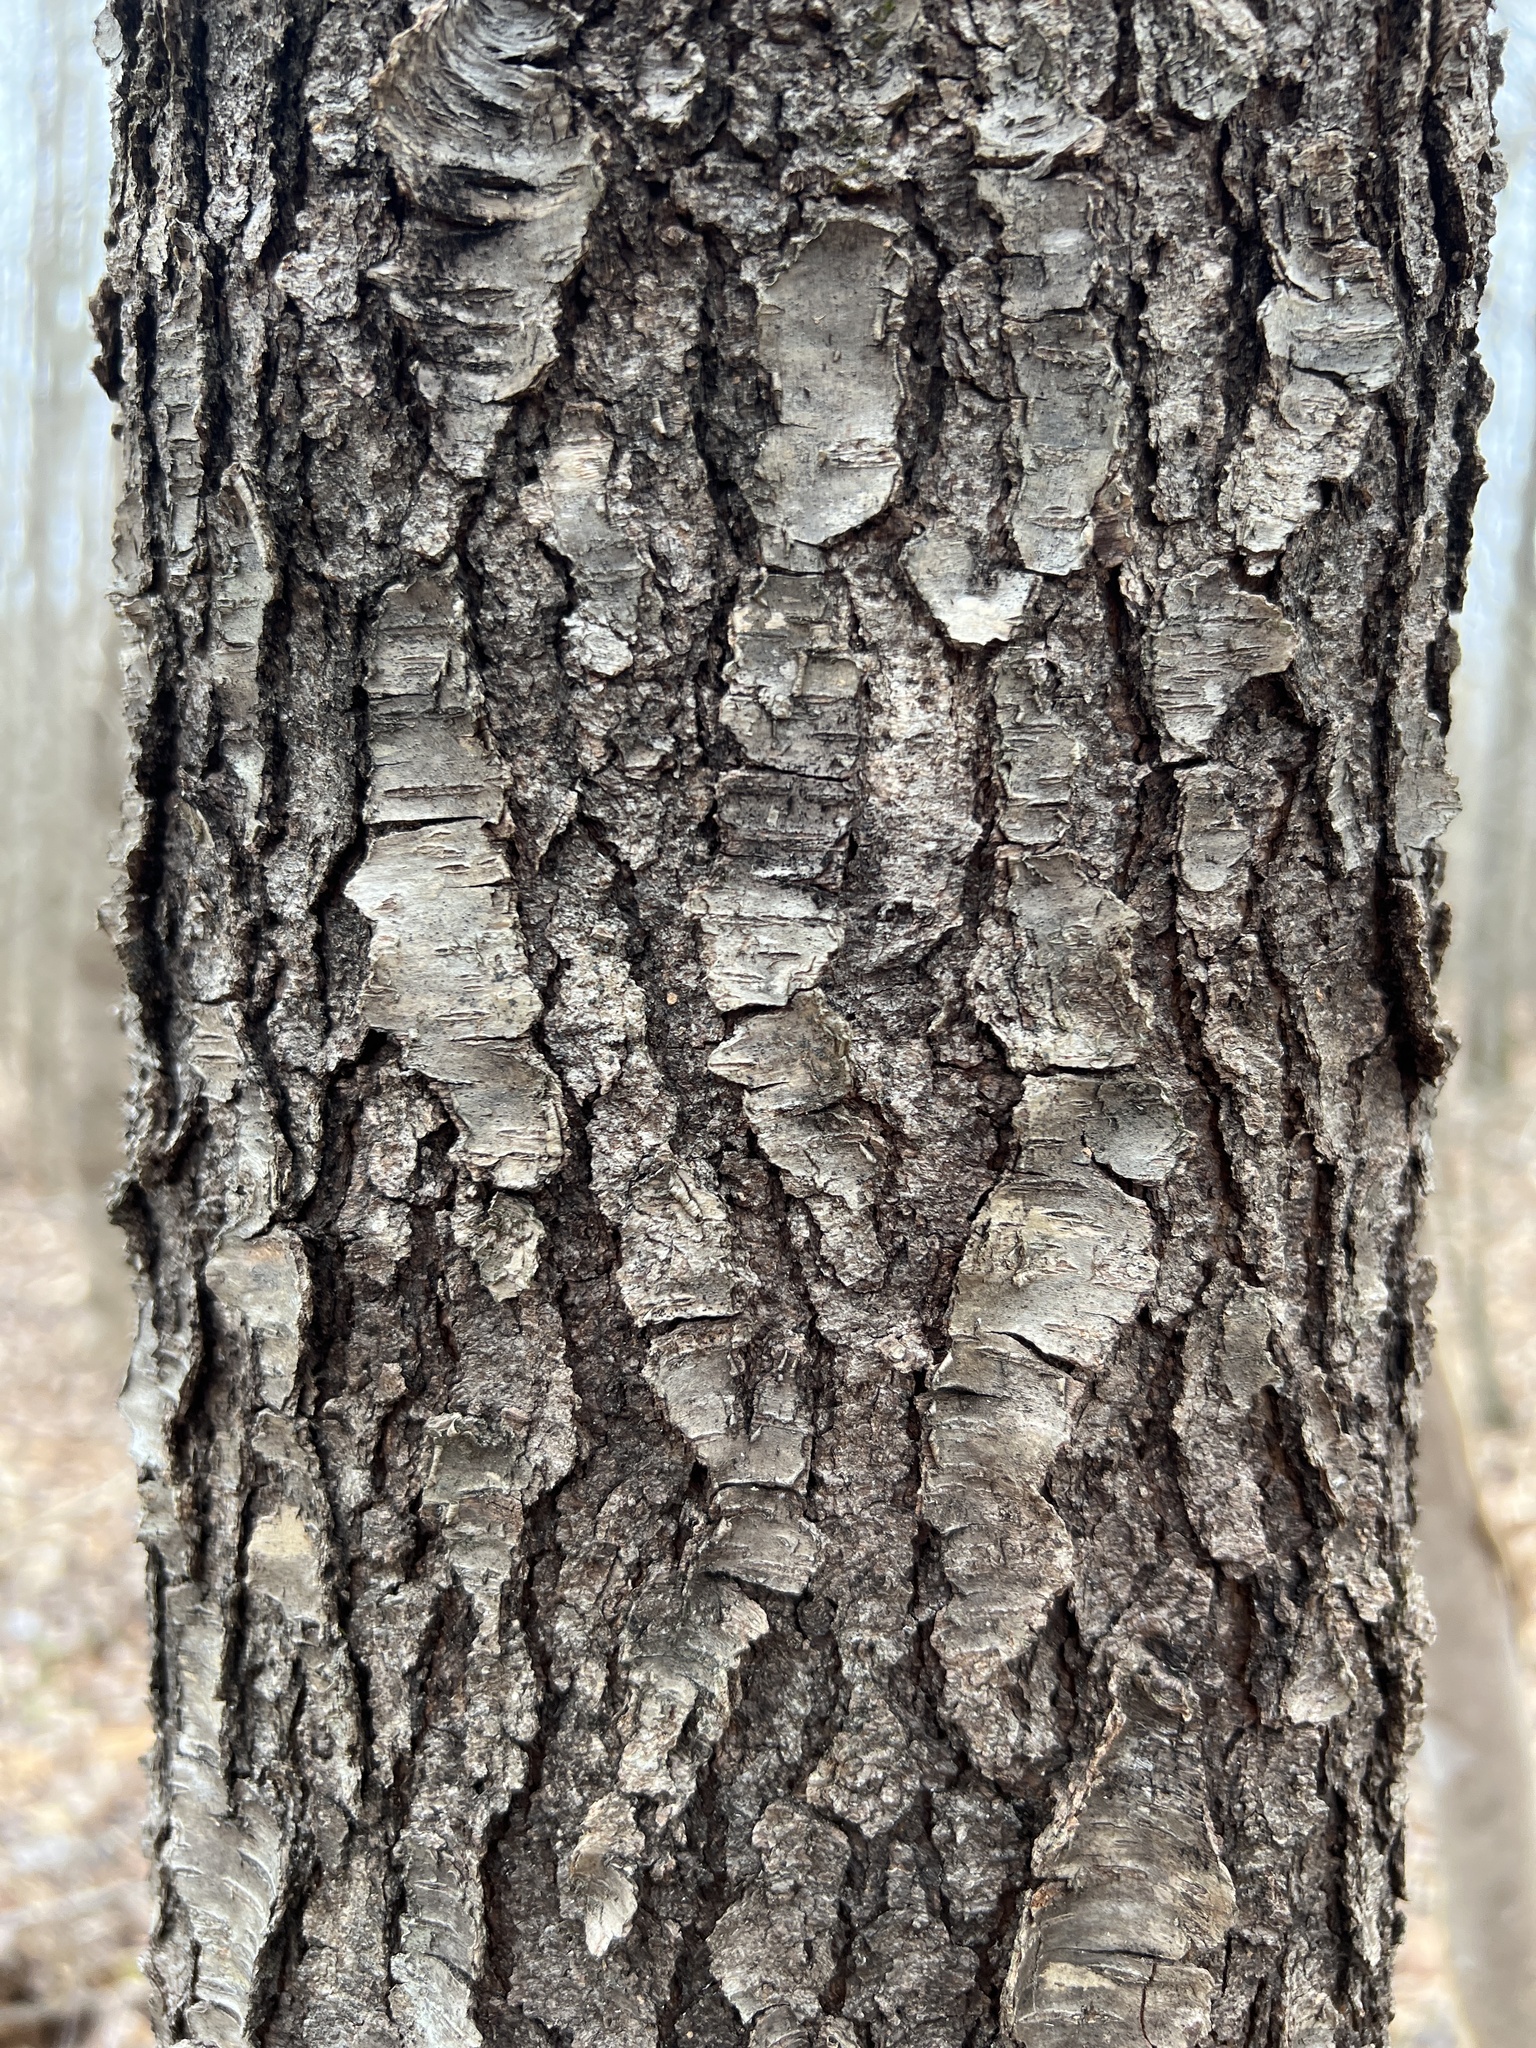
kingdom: Plantae
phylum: Tracheophyta
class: Magnoliopsida
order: Rosales
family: Rosaceae
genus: Prunus
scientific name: Prunus serotina
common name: Black cherry
